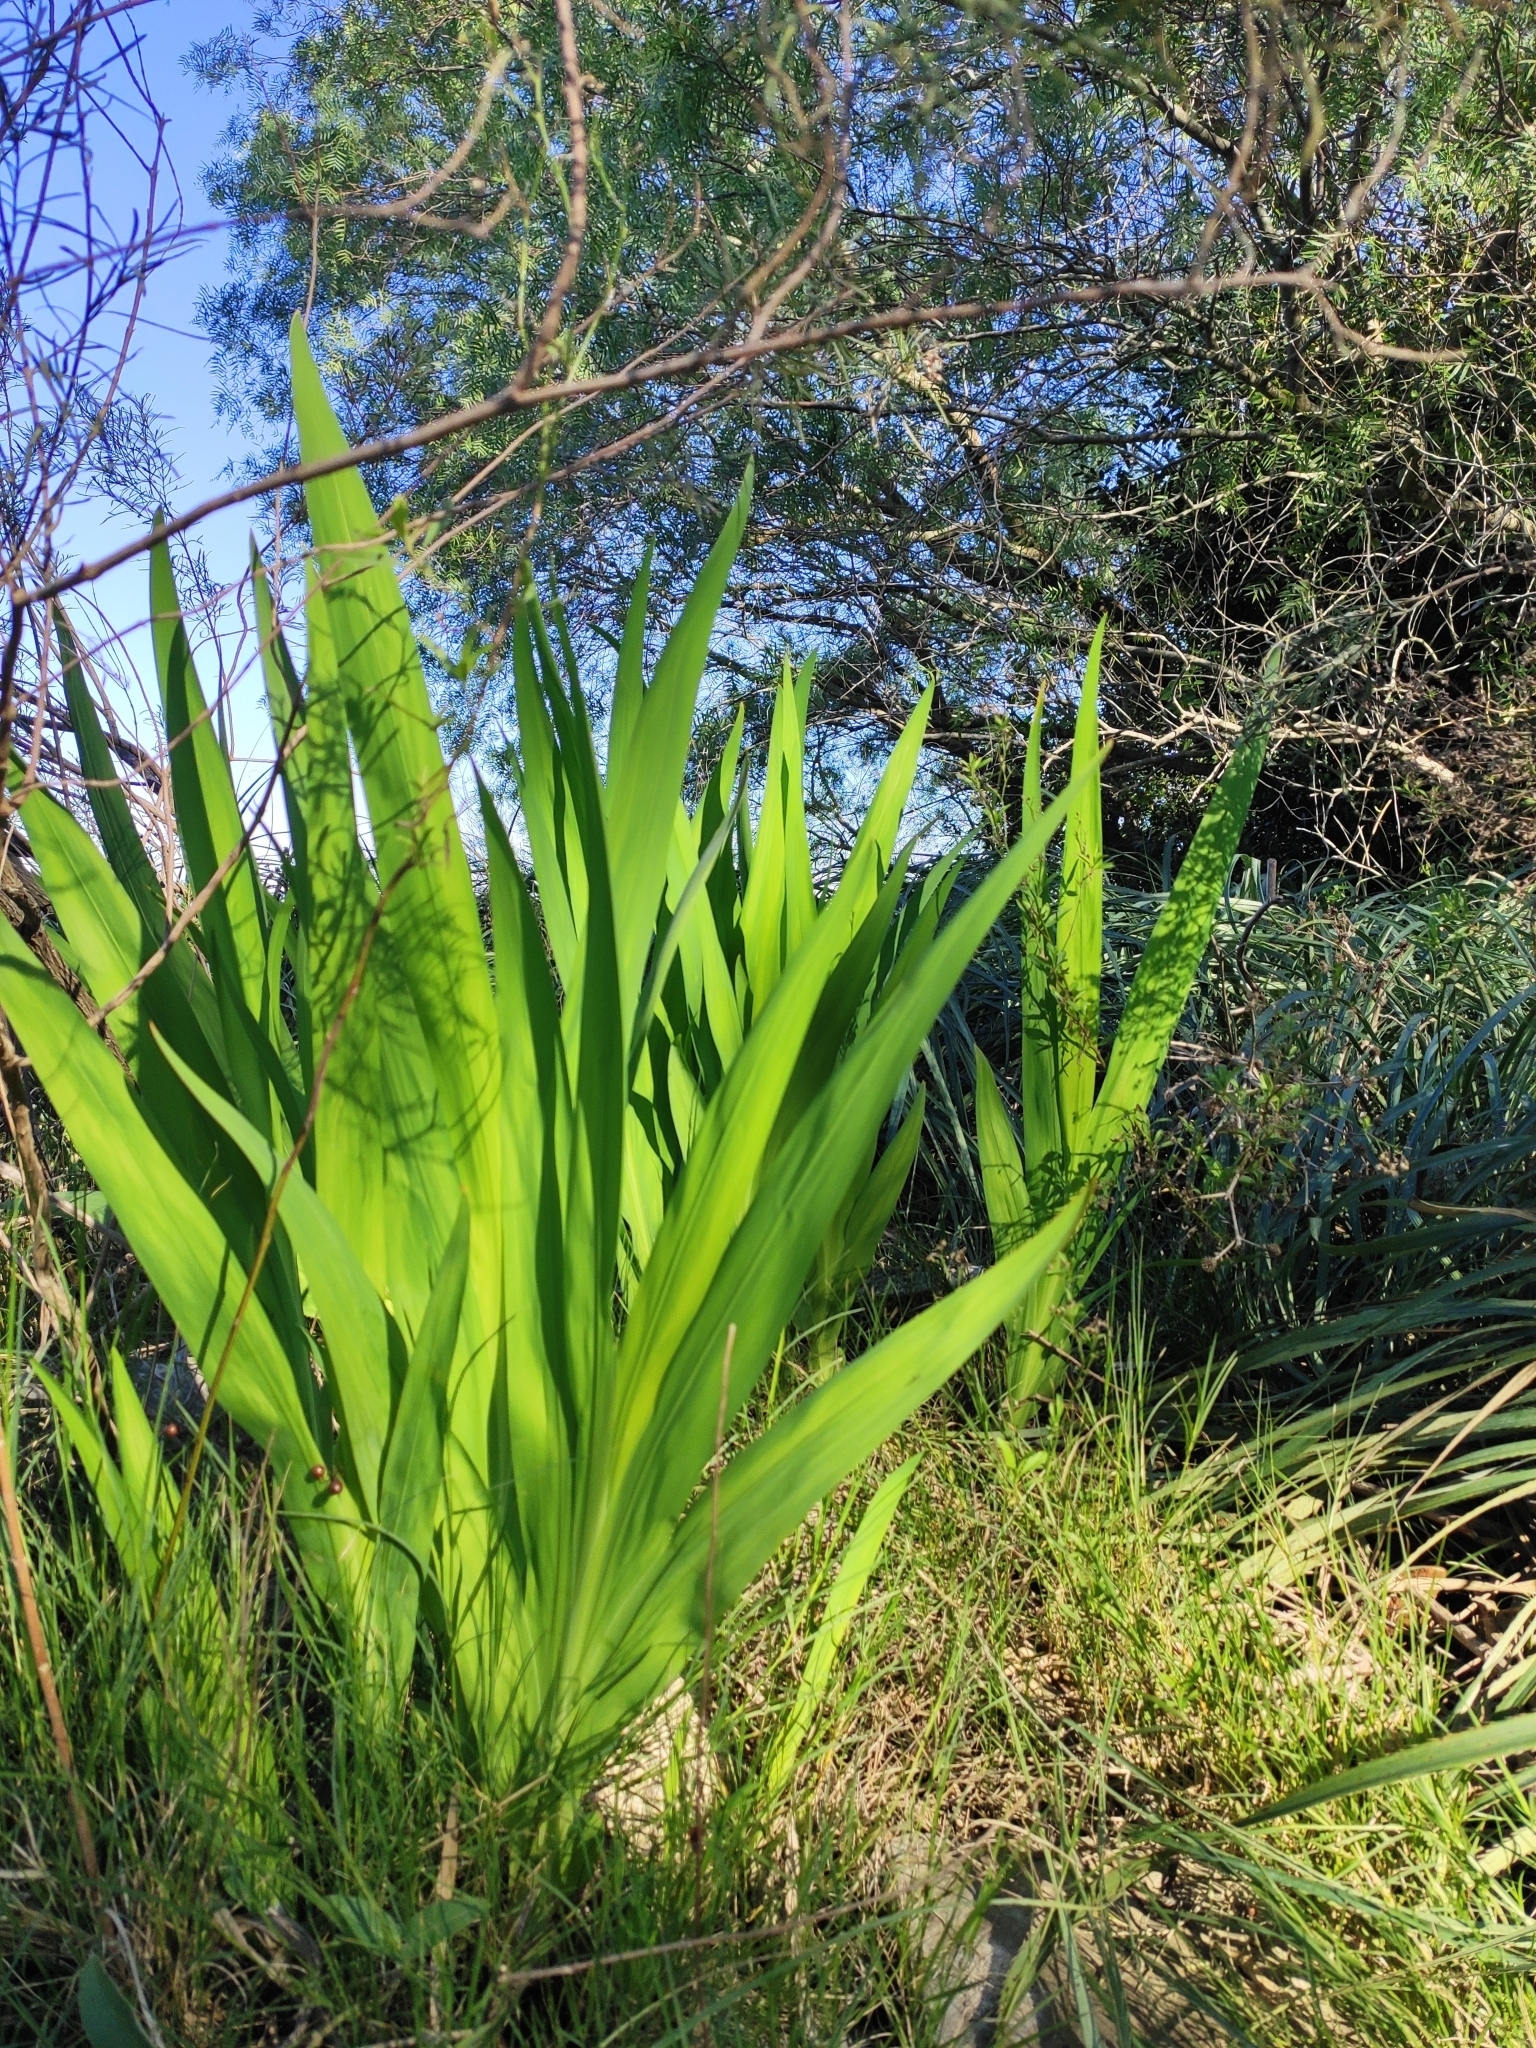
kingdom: Plantae
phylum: Tracheophyta
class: Liliopsida
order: Asparagales
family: Iridaceae
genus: Crocosmia
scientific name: Crocosmia crocosmiiflora
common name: Montbretia
